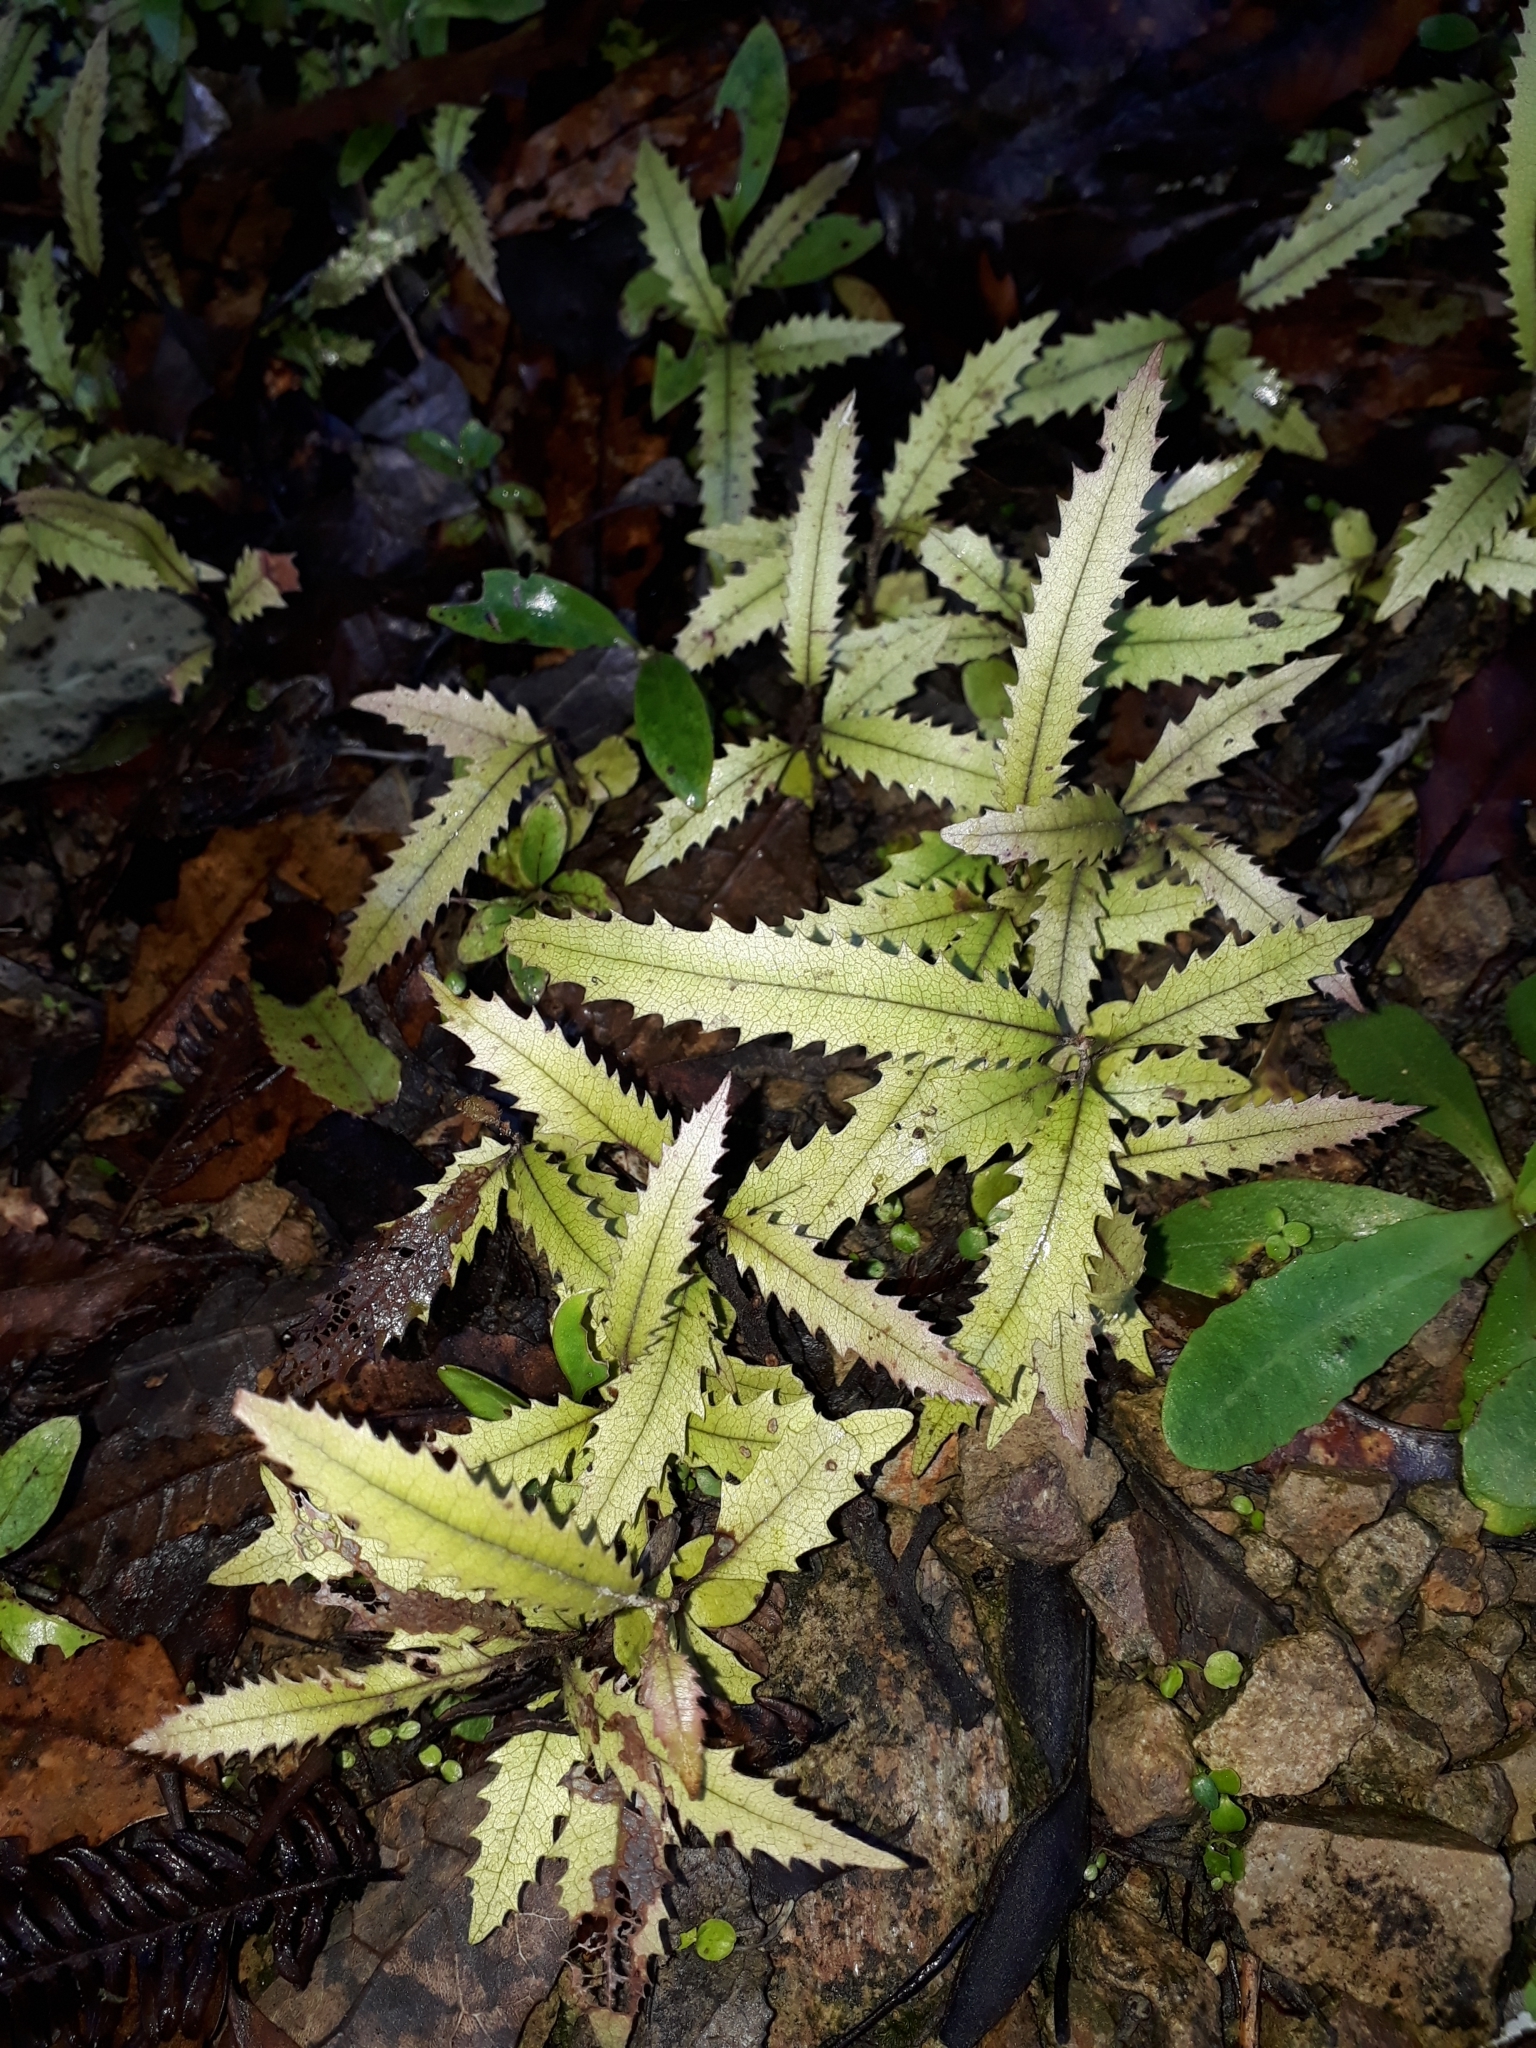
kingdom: Plantae
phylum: Tracheophyta
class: Magnoliopsida
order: Proteales
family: Proteaceae
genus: Knightia
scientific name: Knightia excelsa
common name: New zealand-honeysuckle
